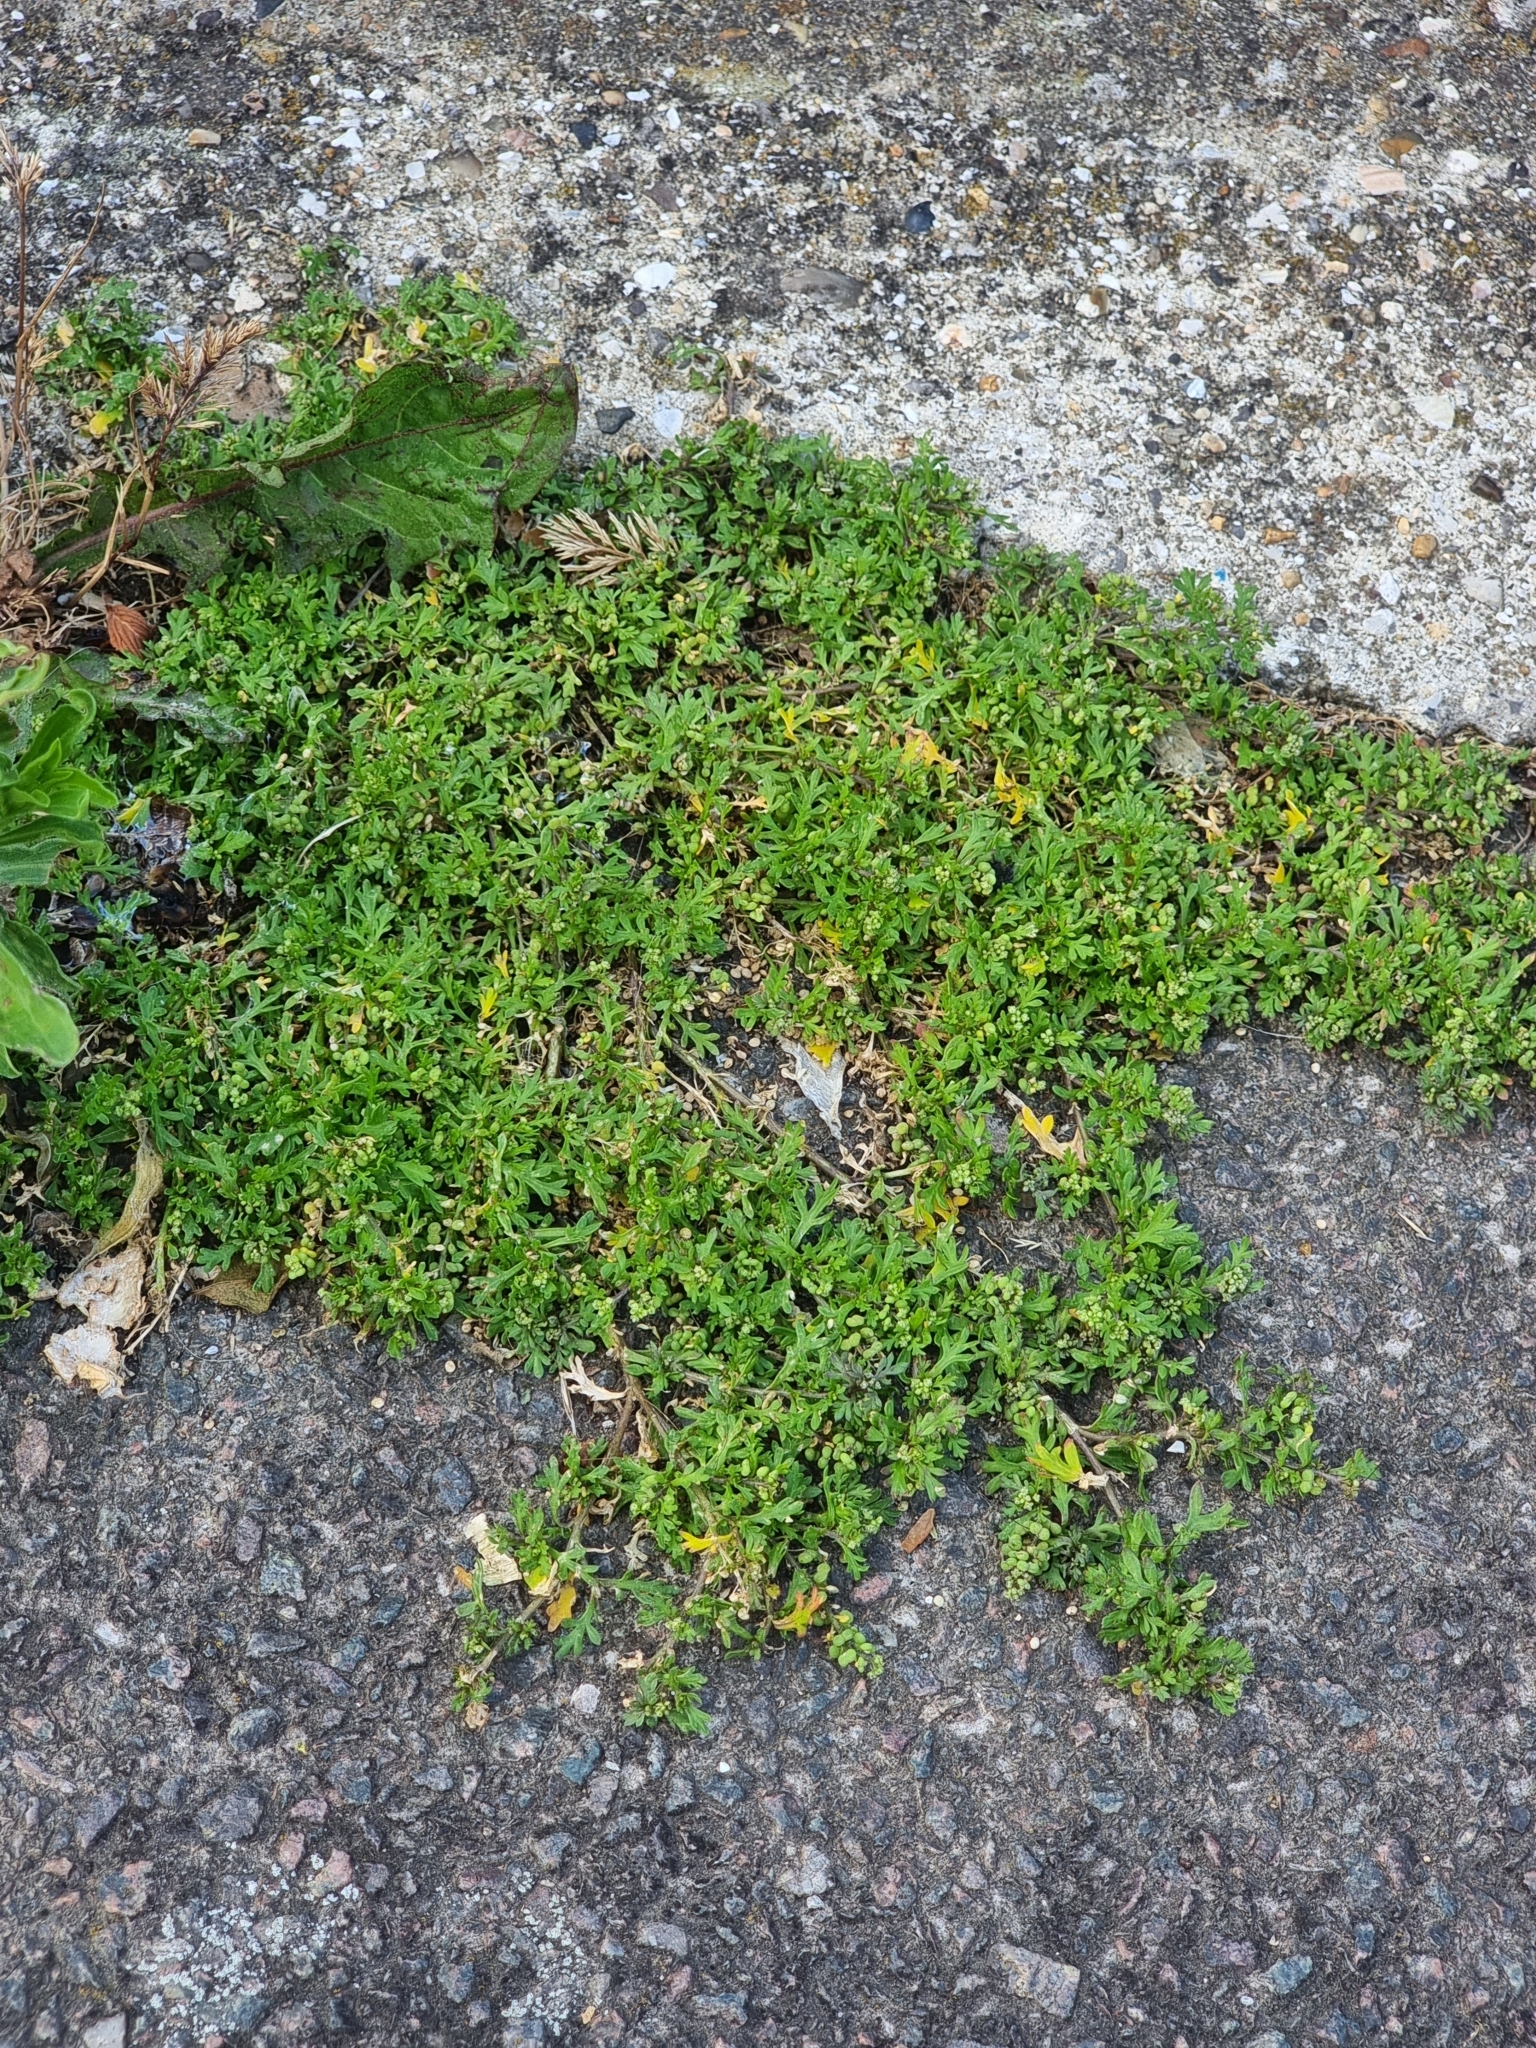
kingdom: Plantae
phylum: Tracheophyta
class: Magnoliopsida
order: Brassicales
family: Brassicaceae
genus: Lepidium
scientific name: Lepidium didymum
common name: Lesser swinecress
